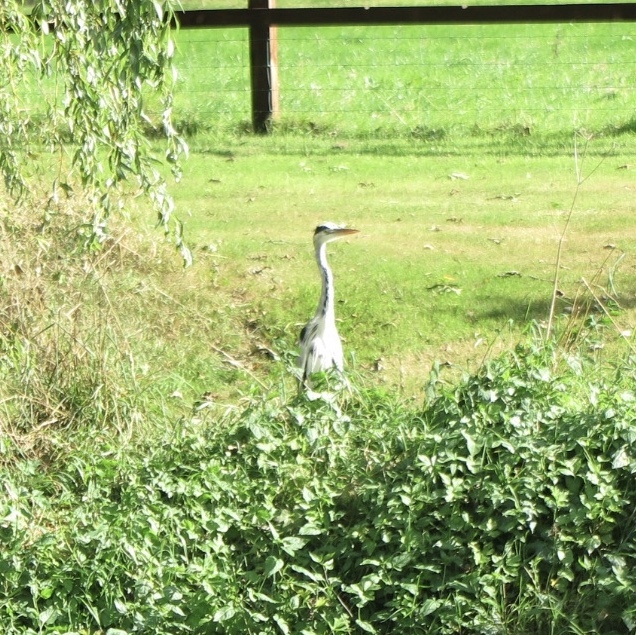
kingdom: Animalia
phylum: Chordata
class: Aves
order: Pelecaniformes
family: Ardeidae
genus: Ardea
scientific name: Ardea cinerea
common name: Grey heron
